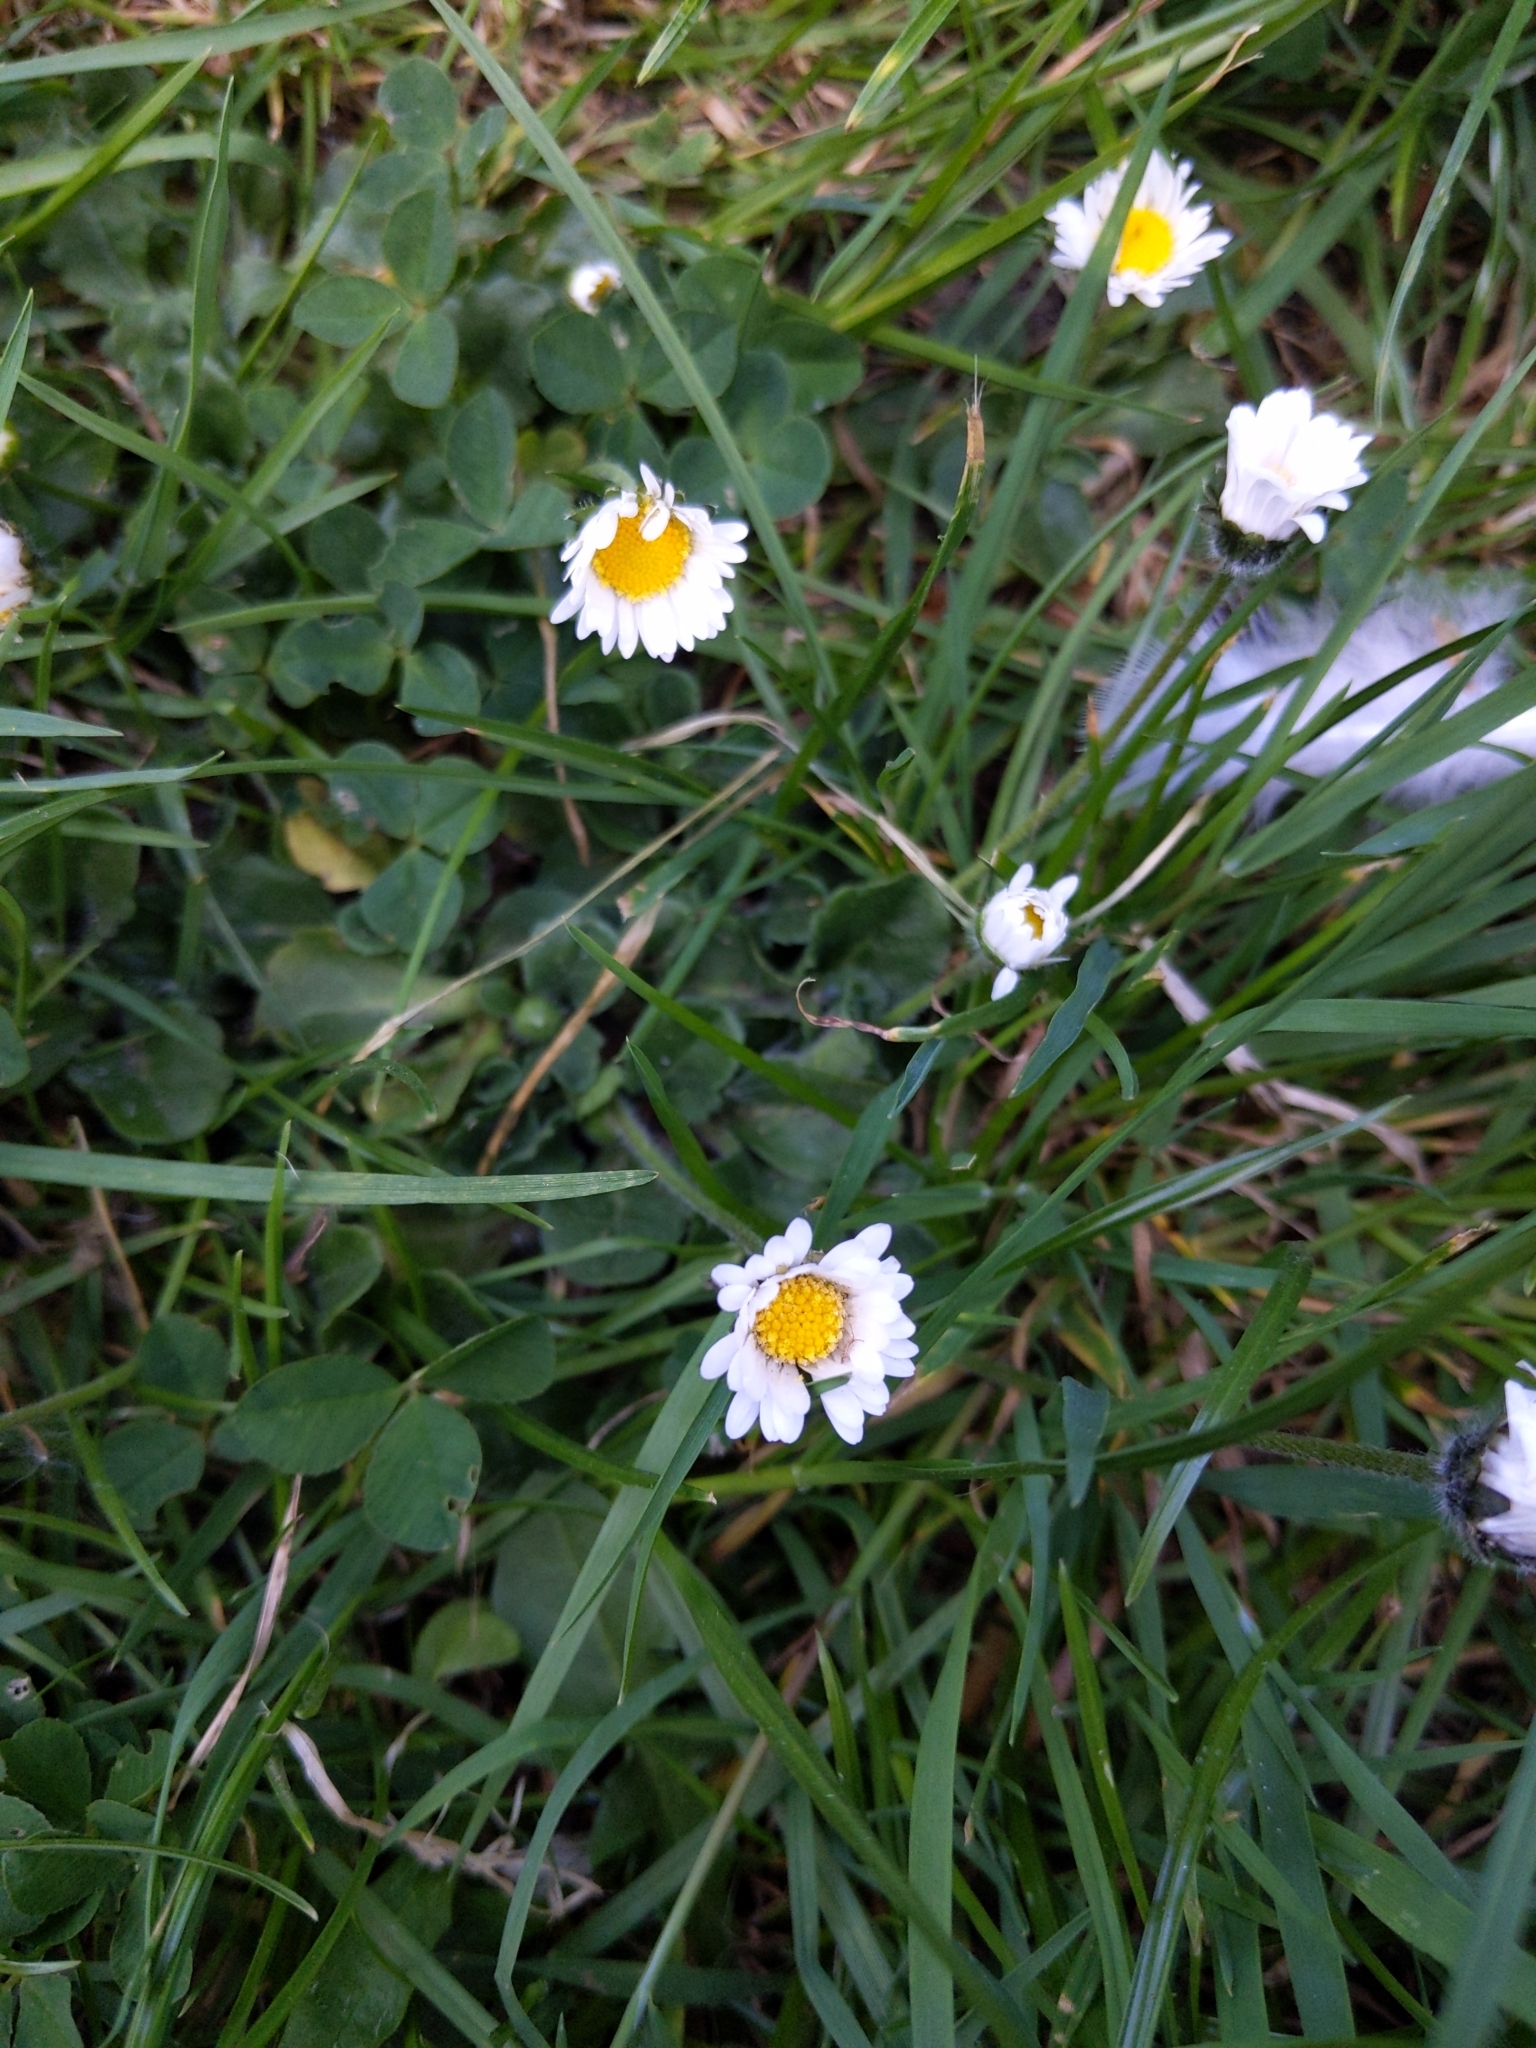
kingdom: Plantae
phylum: Tracheophyta
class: Magnoliopsida
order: Asterales
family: Asteraceae
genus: Bellis
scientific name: Bellis perennis
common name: Lawndaisy
